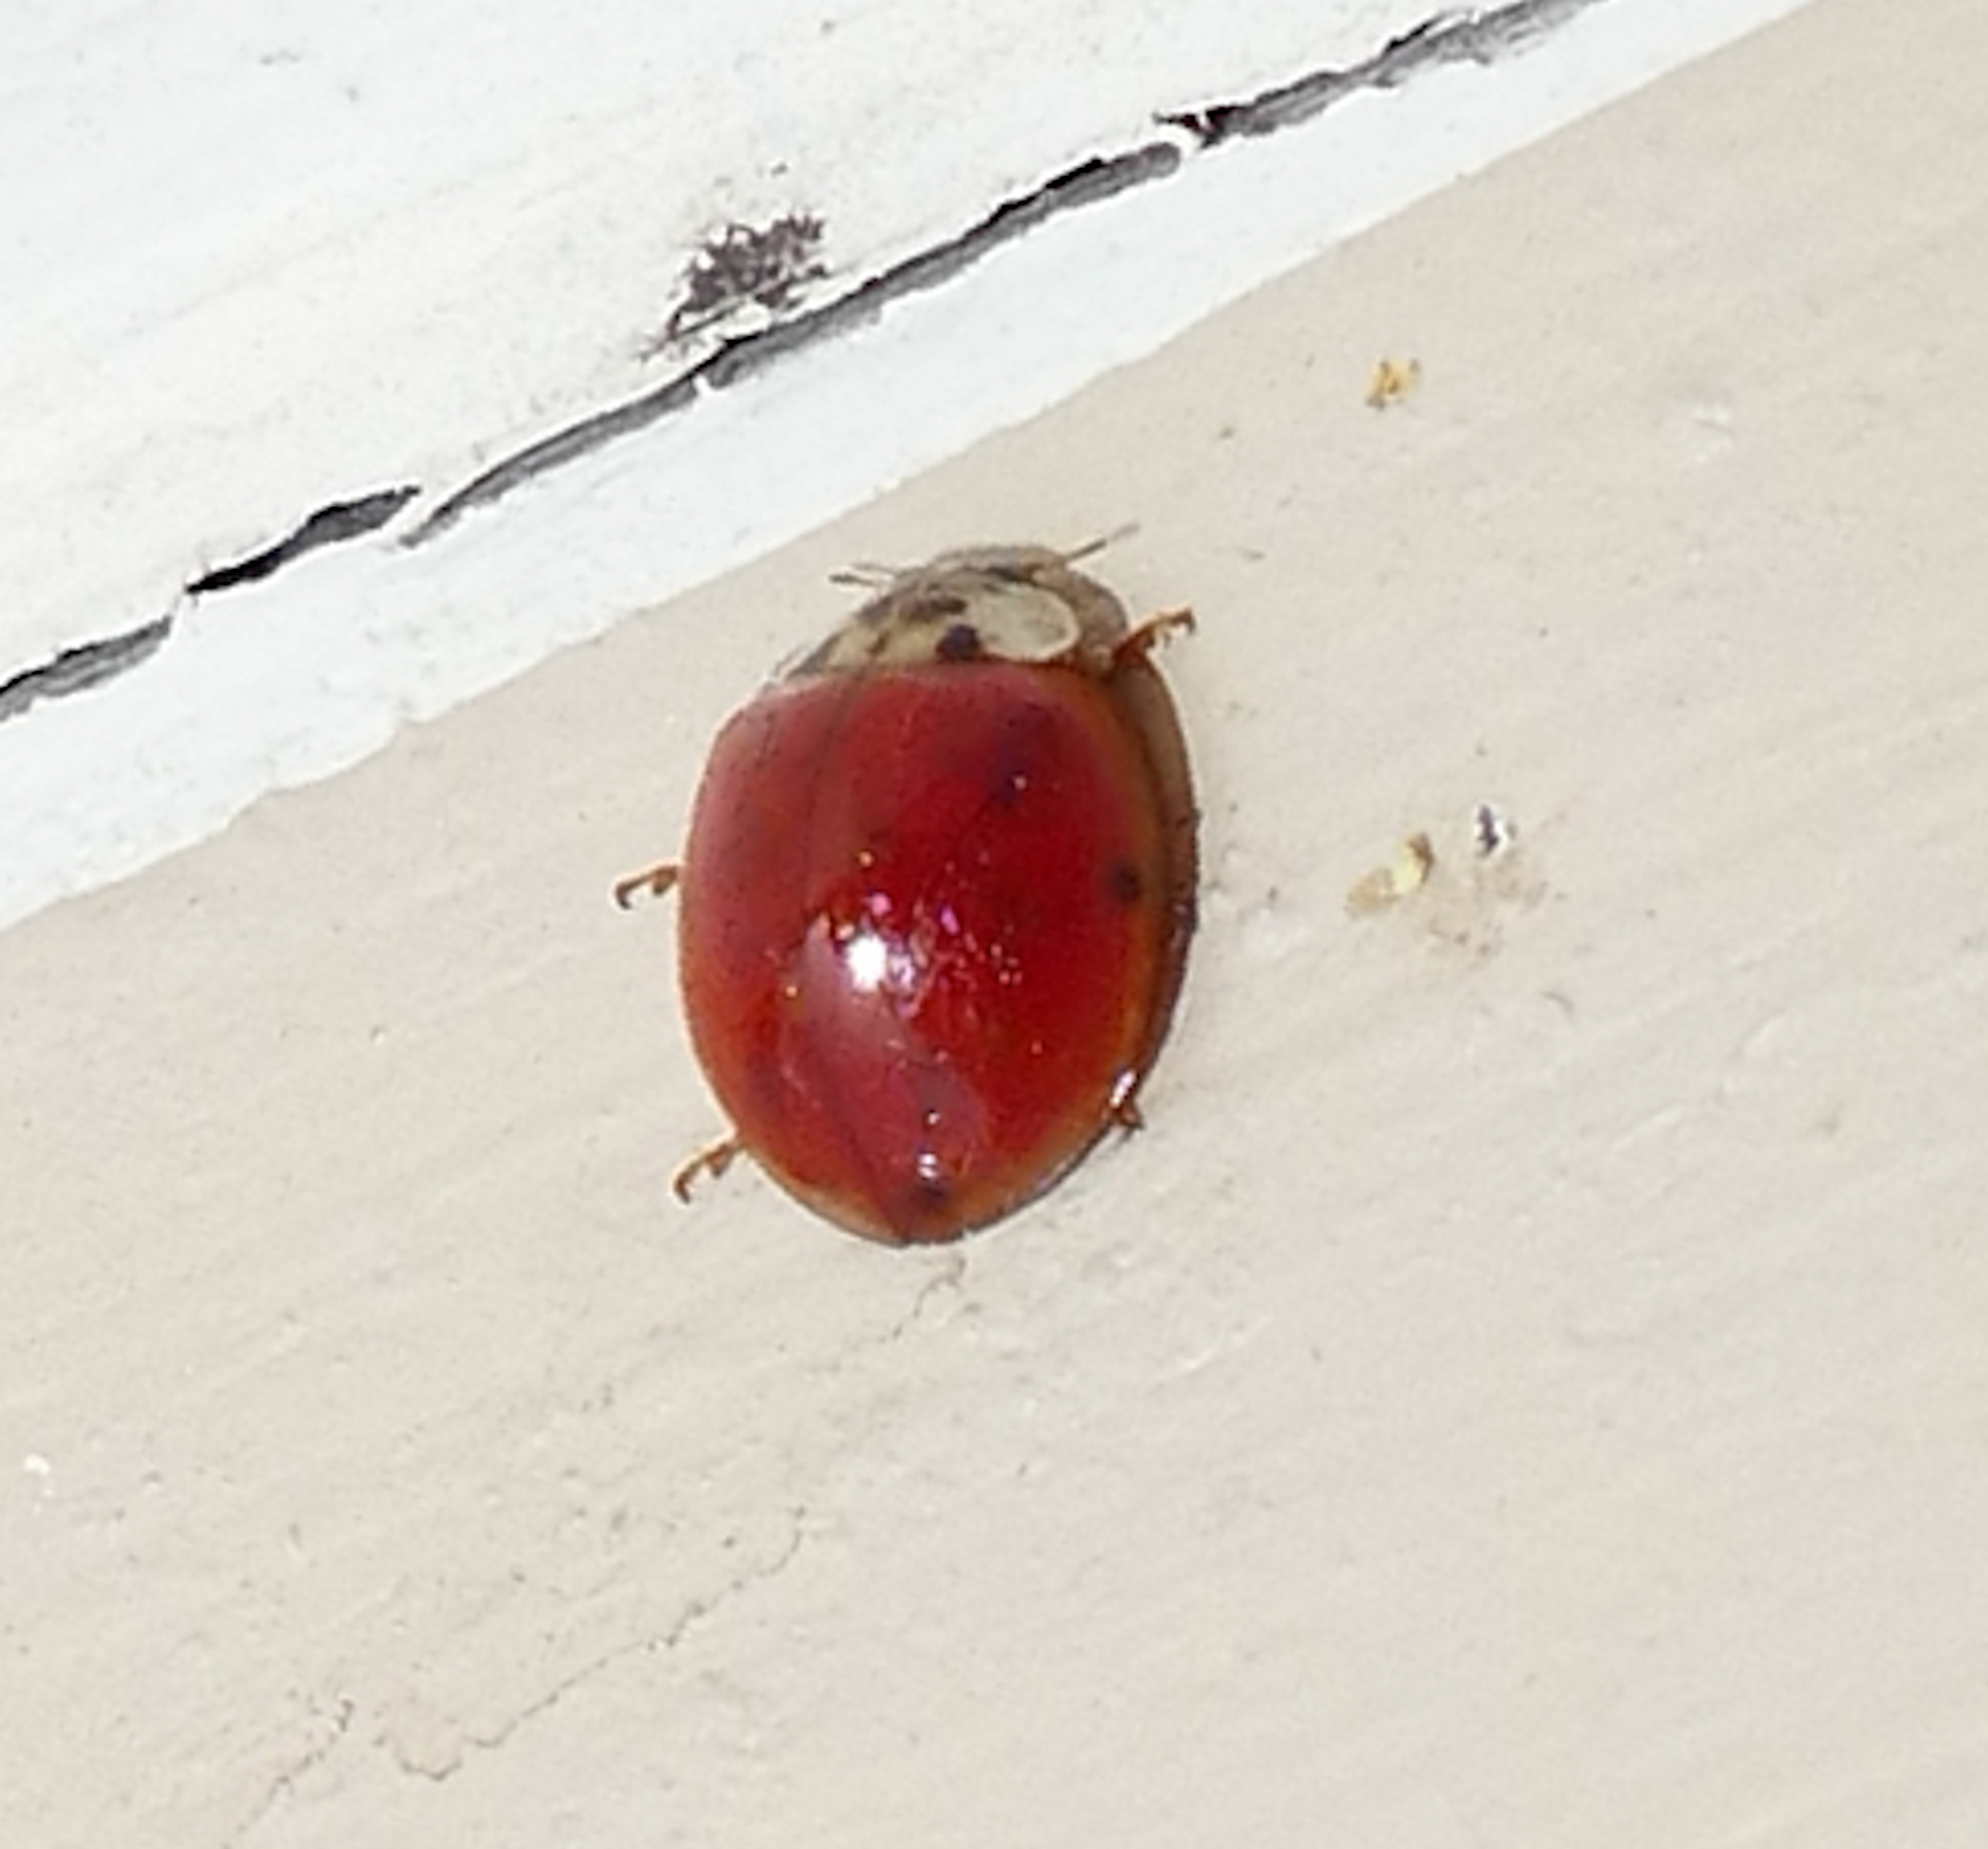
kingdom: Animalia
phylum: Arthropoda
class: Insecta
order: Coleoptera
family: Coccinellidae
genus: Harmonia
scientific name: Harmonia axyridis
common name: Harlequin ladybird
